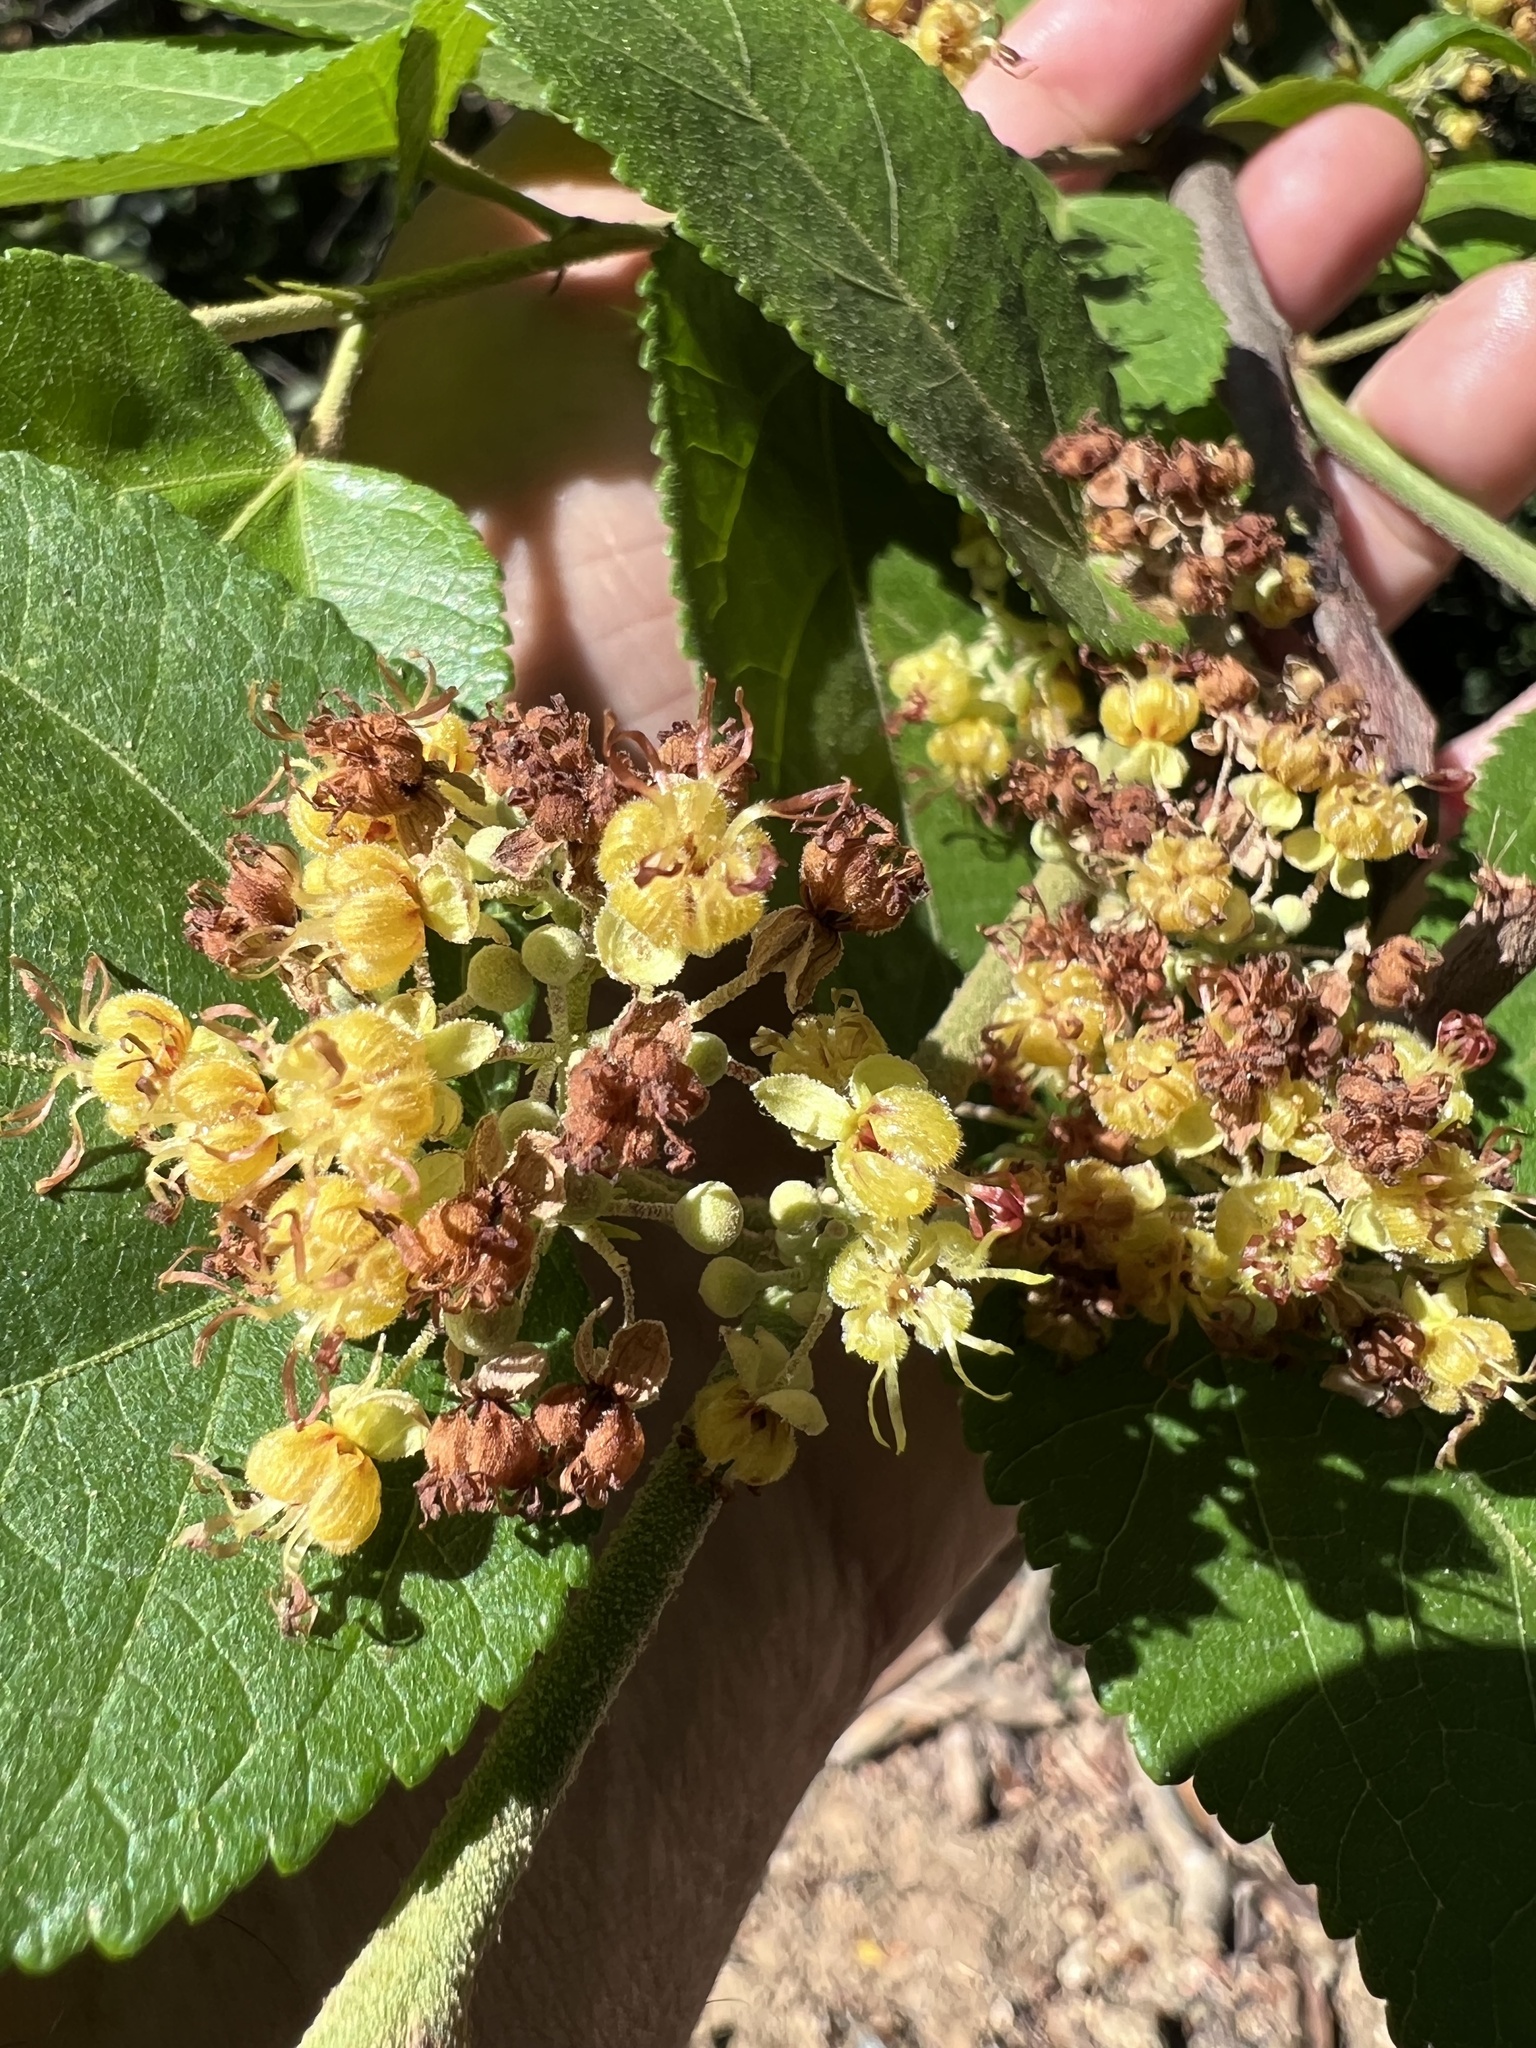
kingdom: Plantae
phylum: Tracheophyta
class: Magnoliopsida
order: Malvales
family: Malvaceae
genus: Guazuma
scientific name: Guazuma ulmifolia
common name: Bastard-cedar
